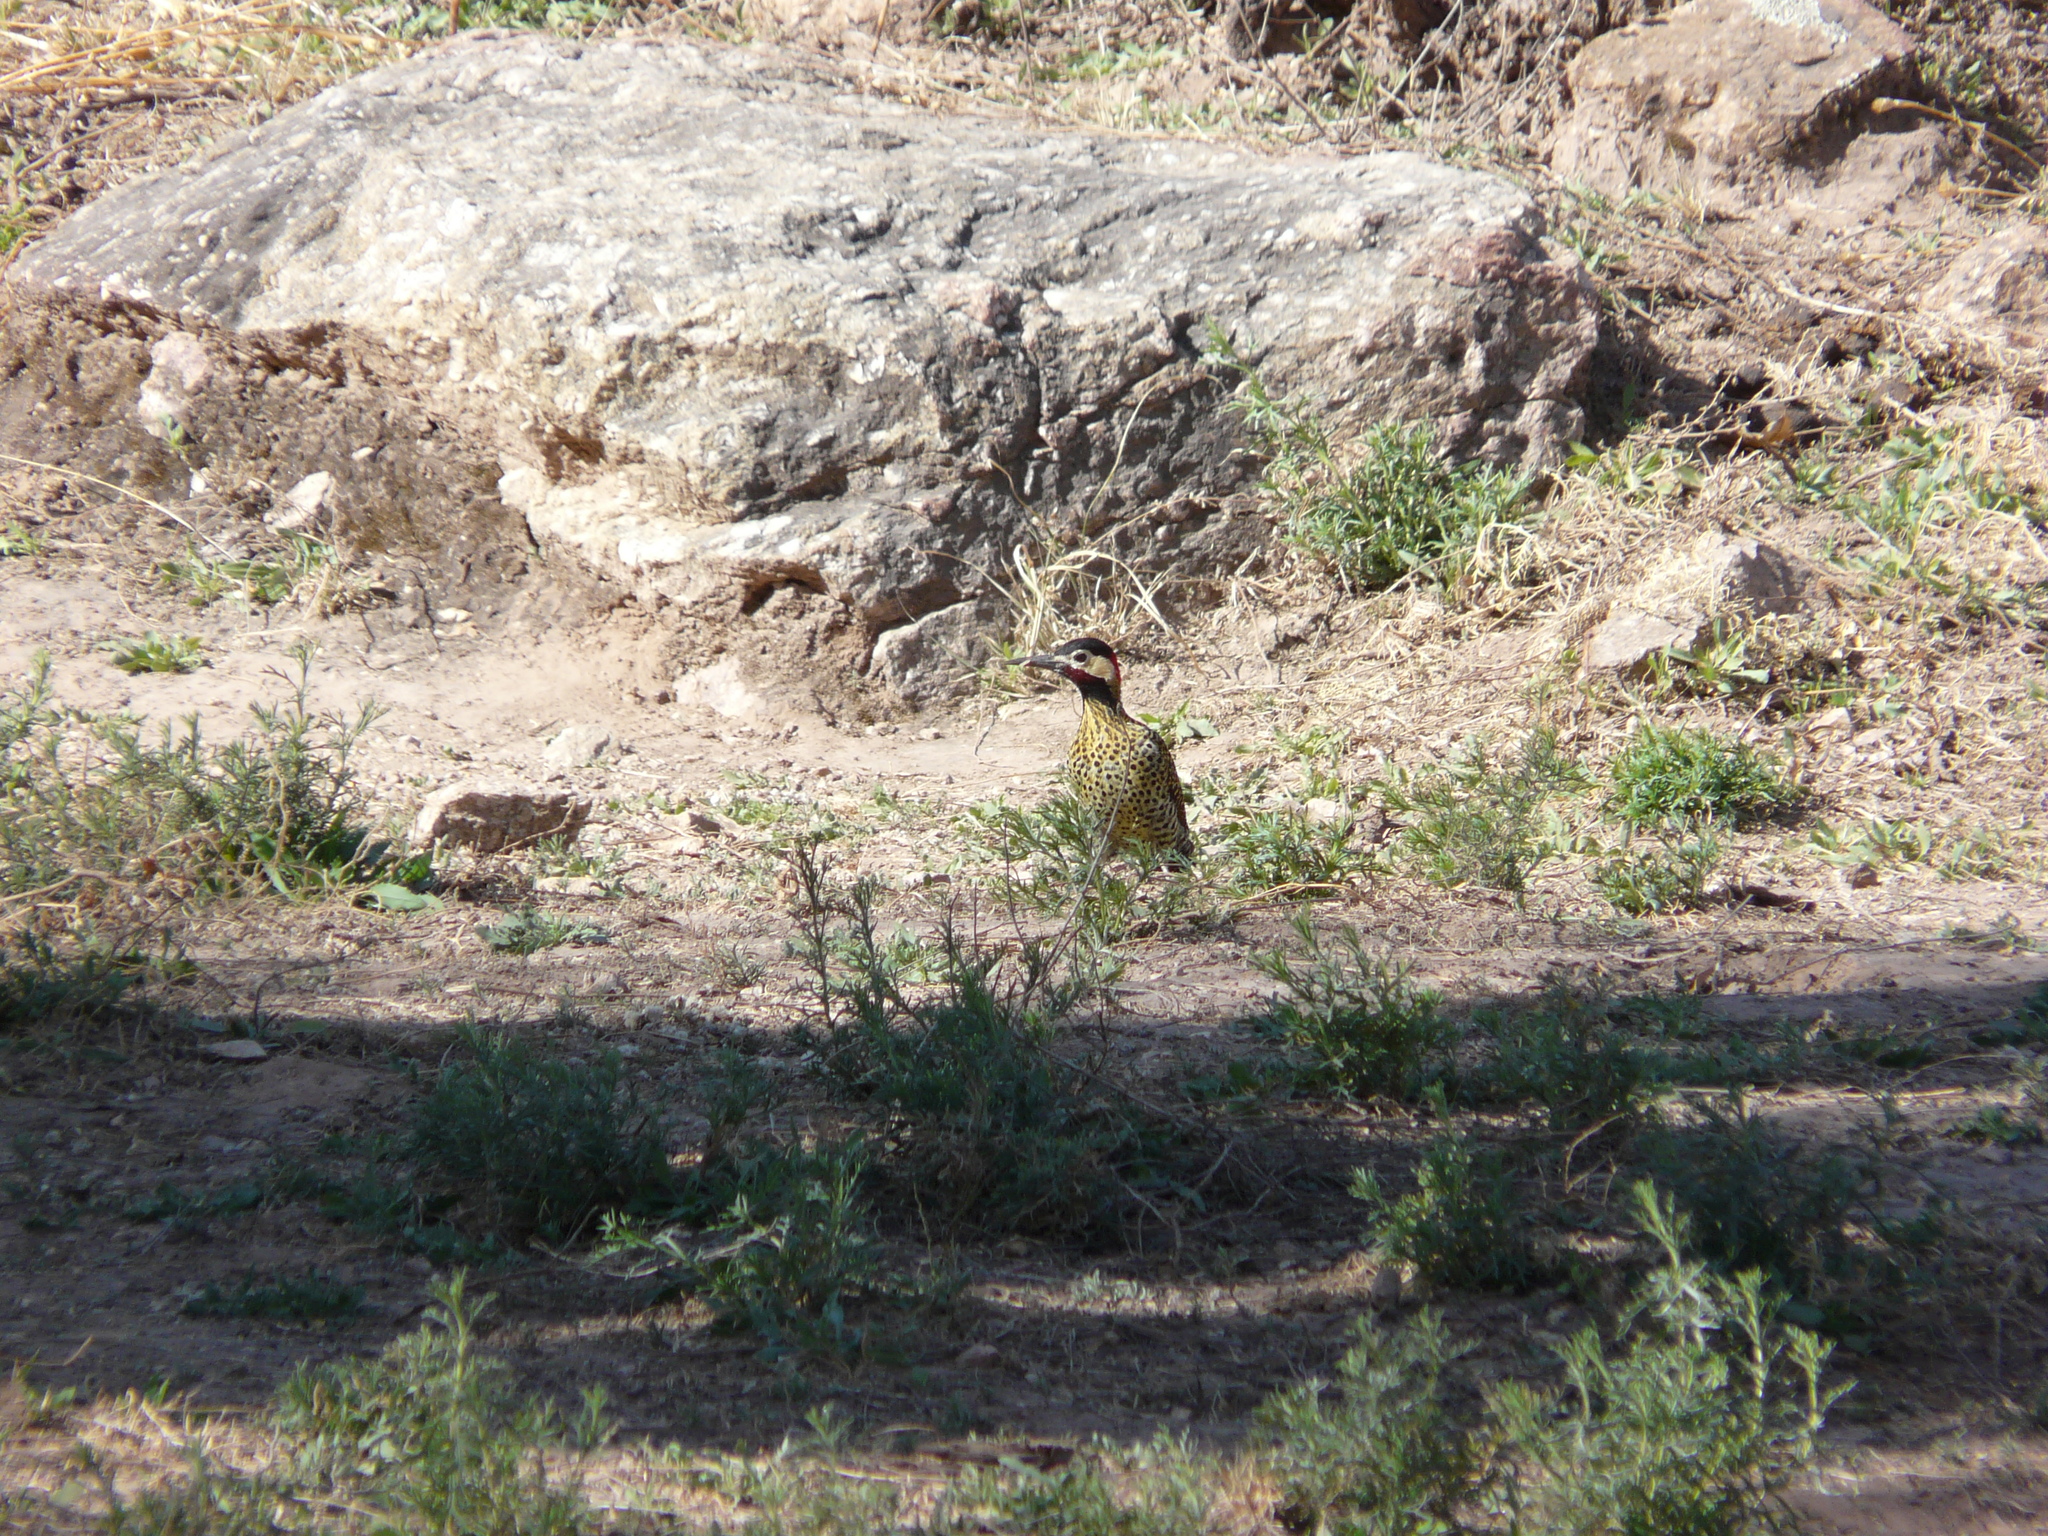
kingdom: Animalia
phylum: Chordata
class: Aves
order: Piciformes
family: Picidae
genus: Colaptes
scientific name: Colaptes melanochloros
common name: Green-barred woodpecker
